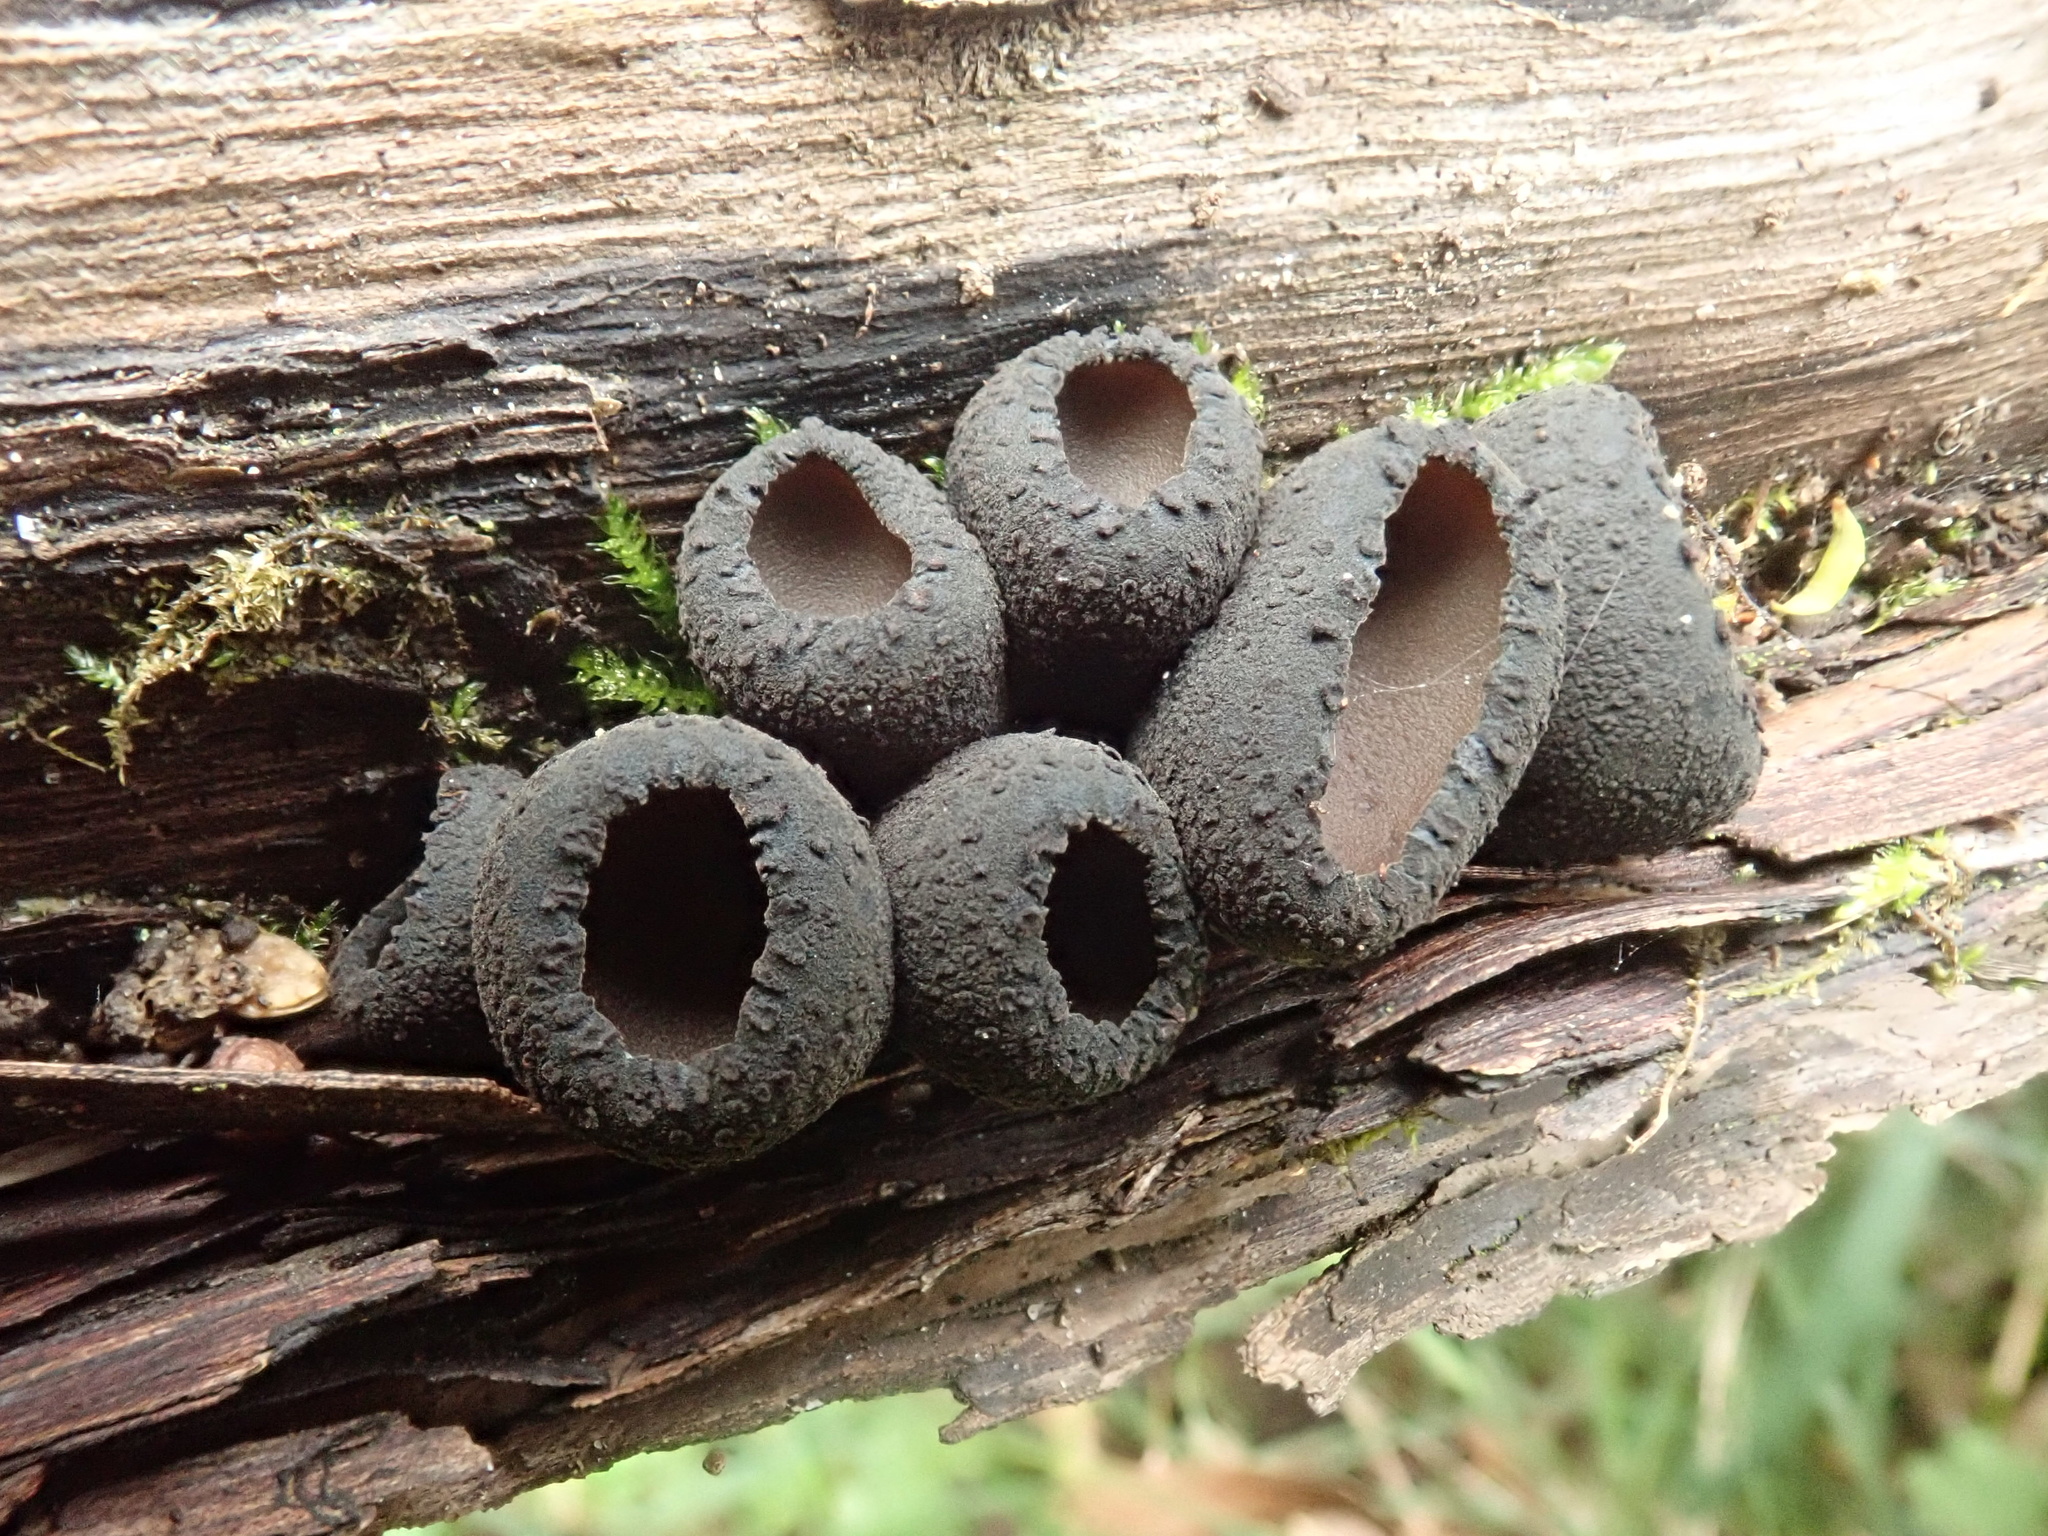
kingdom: Fungi
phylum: Ascomycota
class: Pezizomycetes
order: Pezizales
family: Sarcosomataceae
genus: Plectania
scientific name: Plectania campylospora
